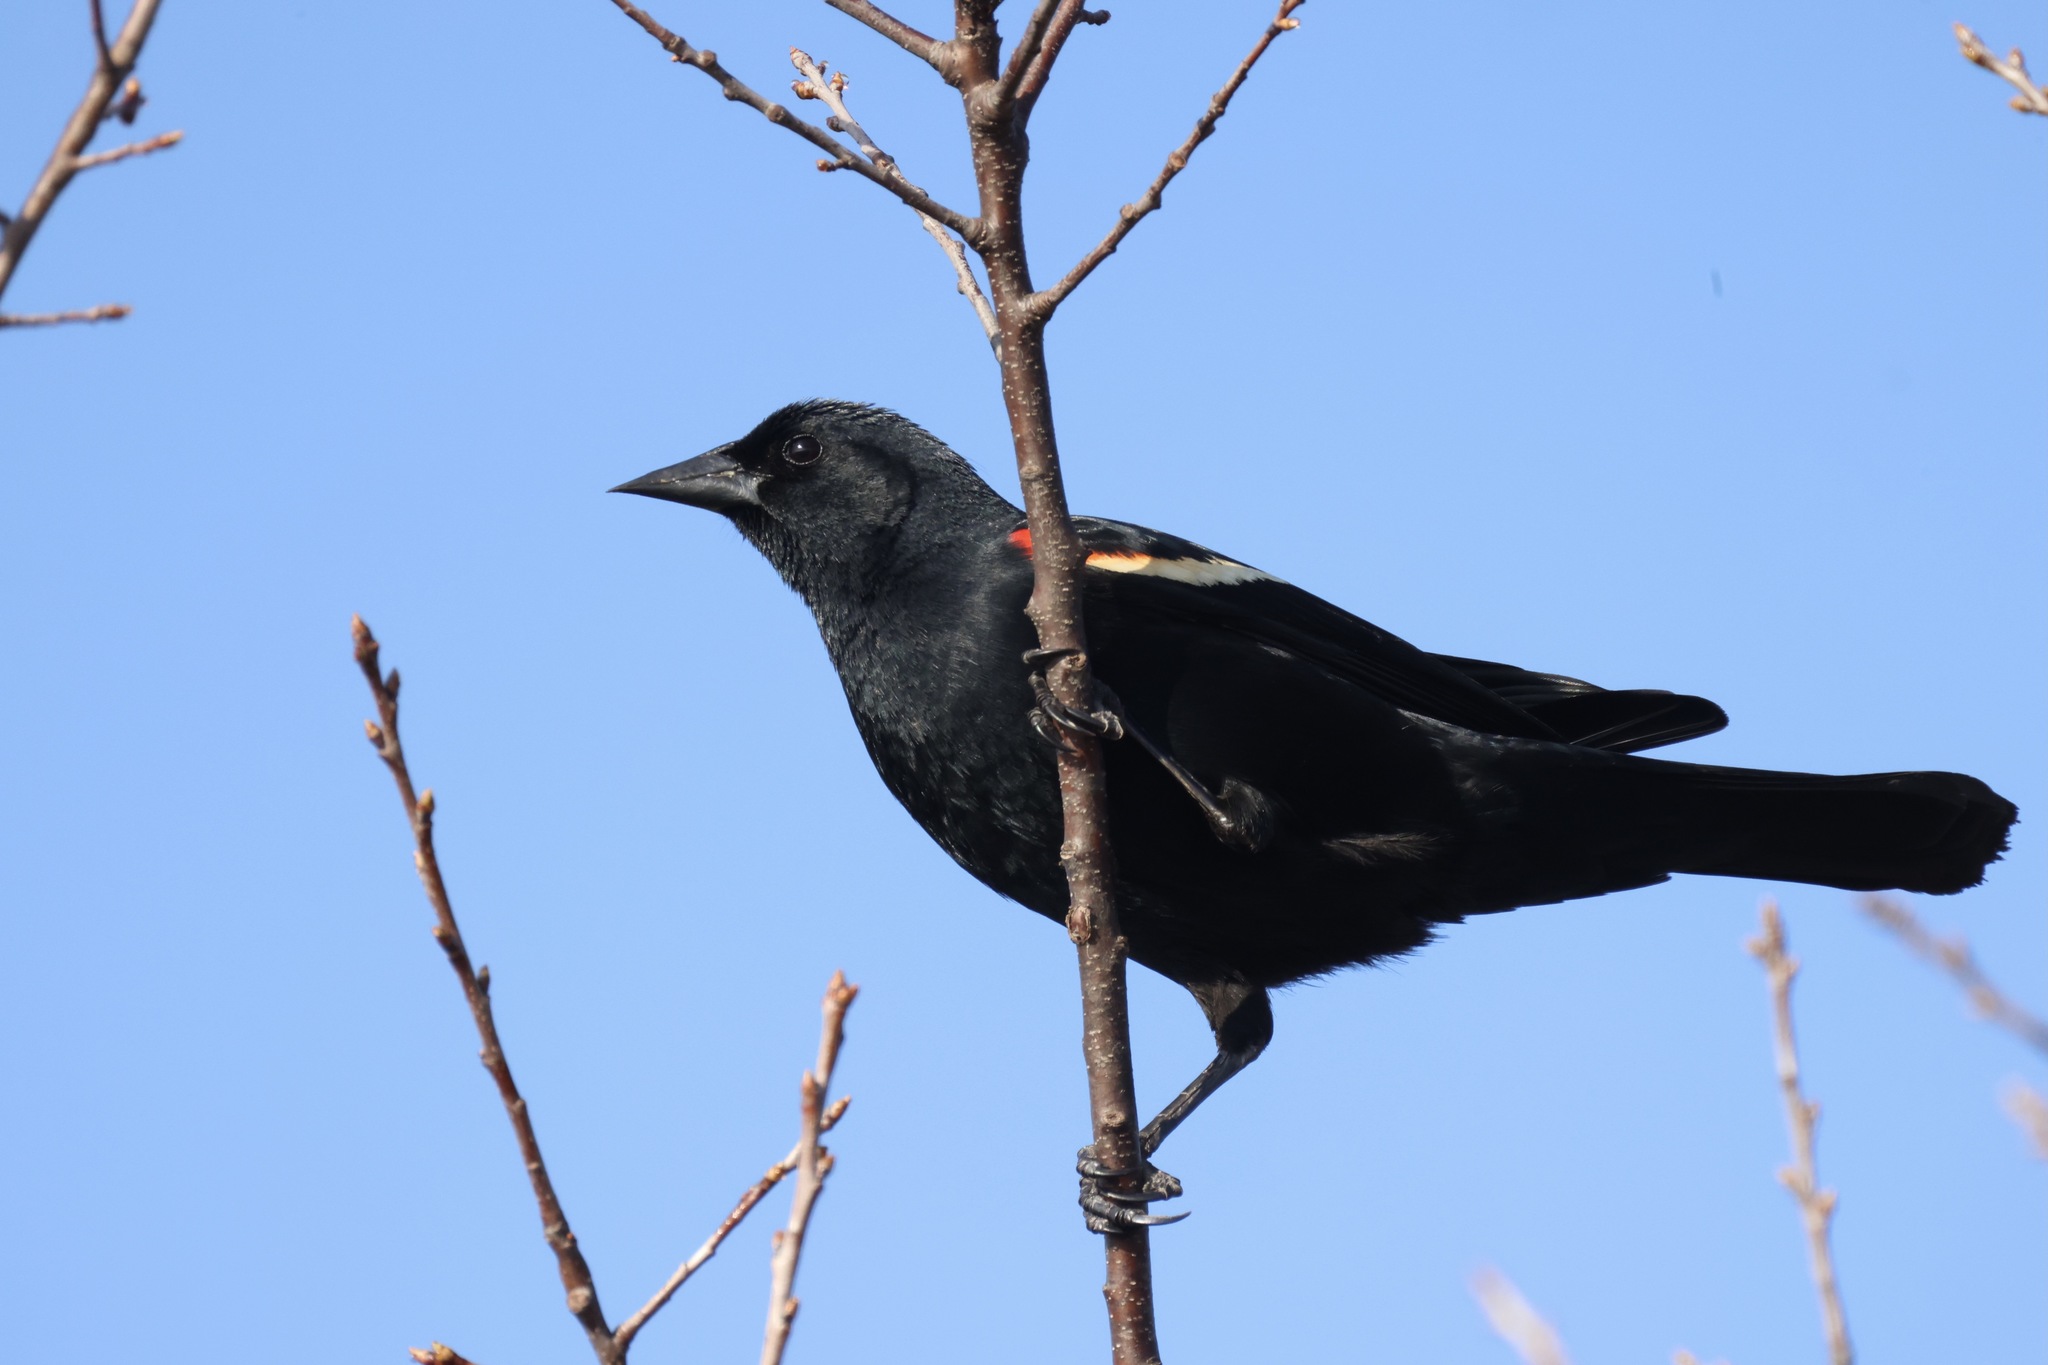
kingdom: Animalia
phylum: Chordata
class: Aves
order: Passeriformes
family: Icteridae
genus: Agelaius
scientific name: Agelaius phoeniceus
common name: Red-winged blackbird
